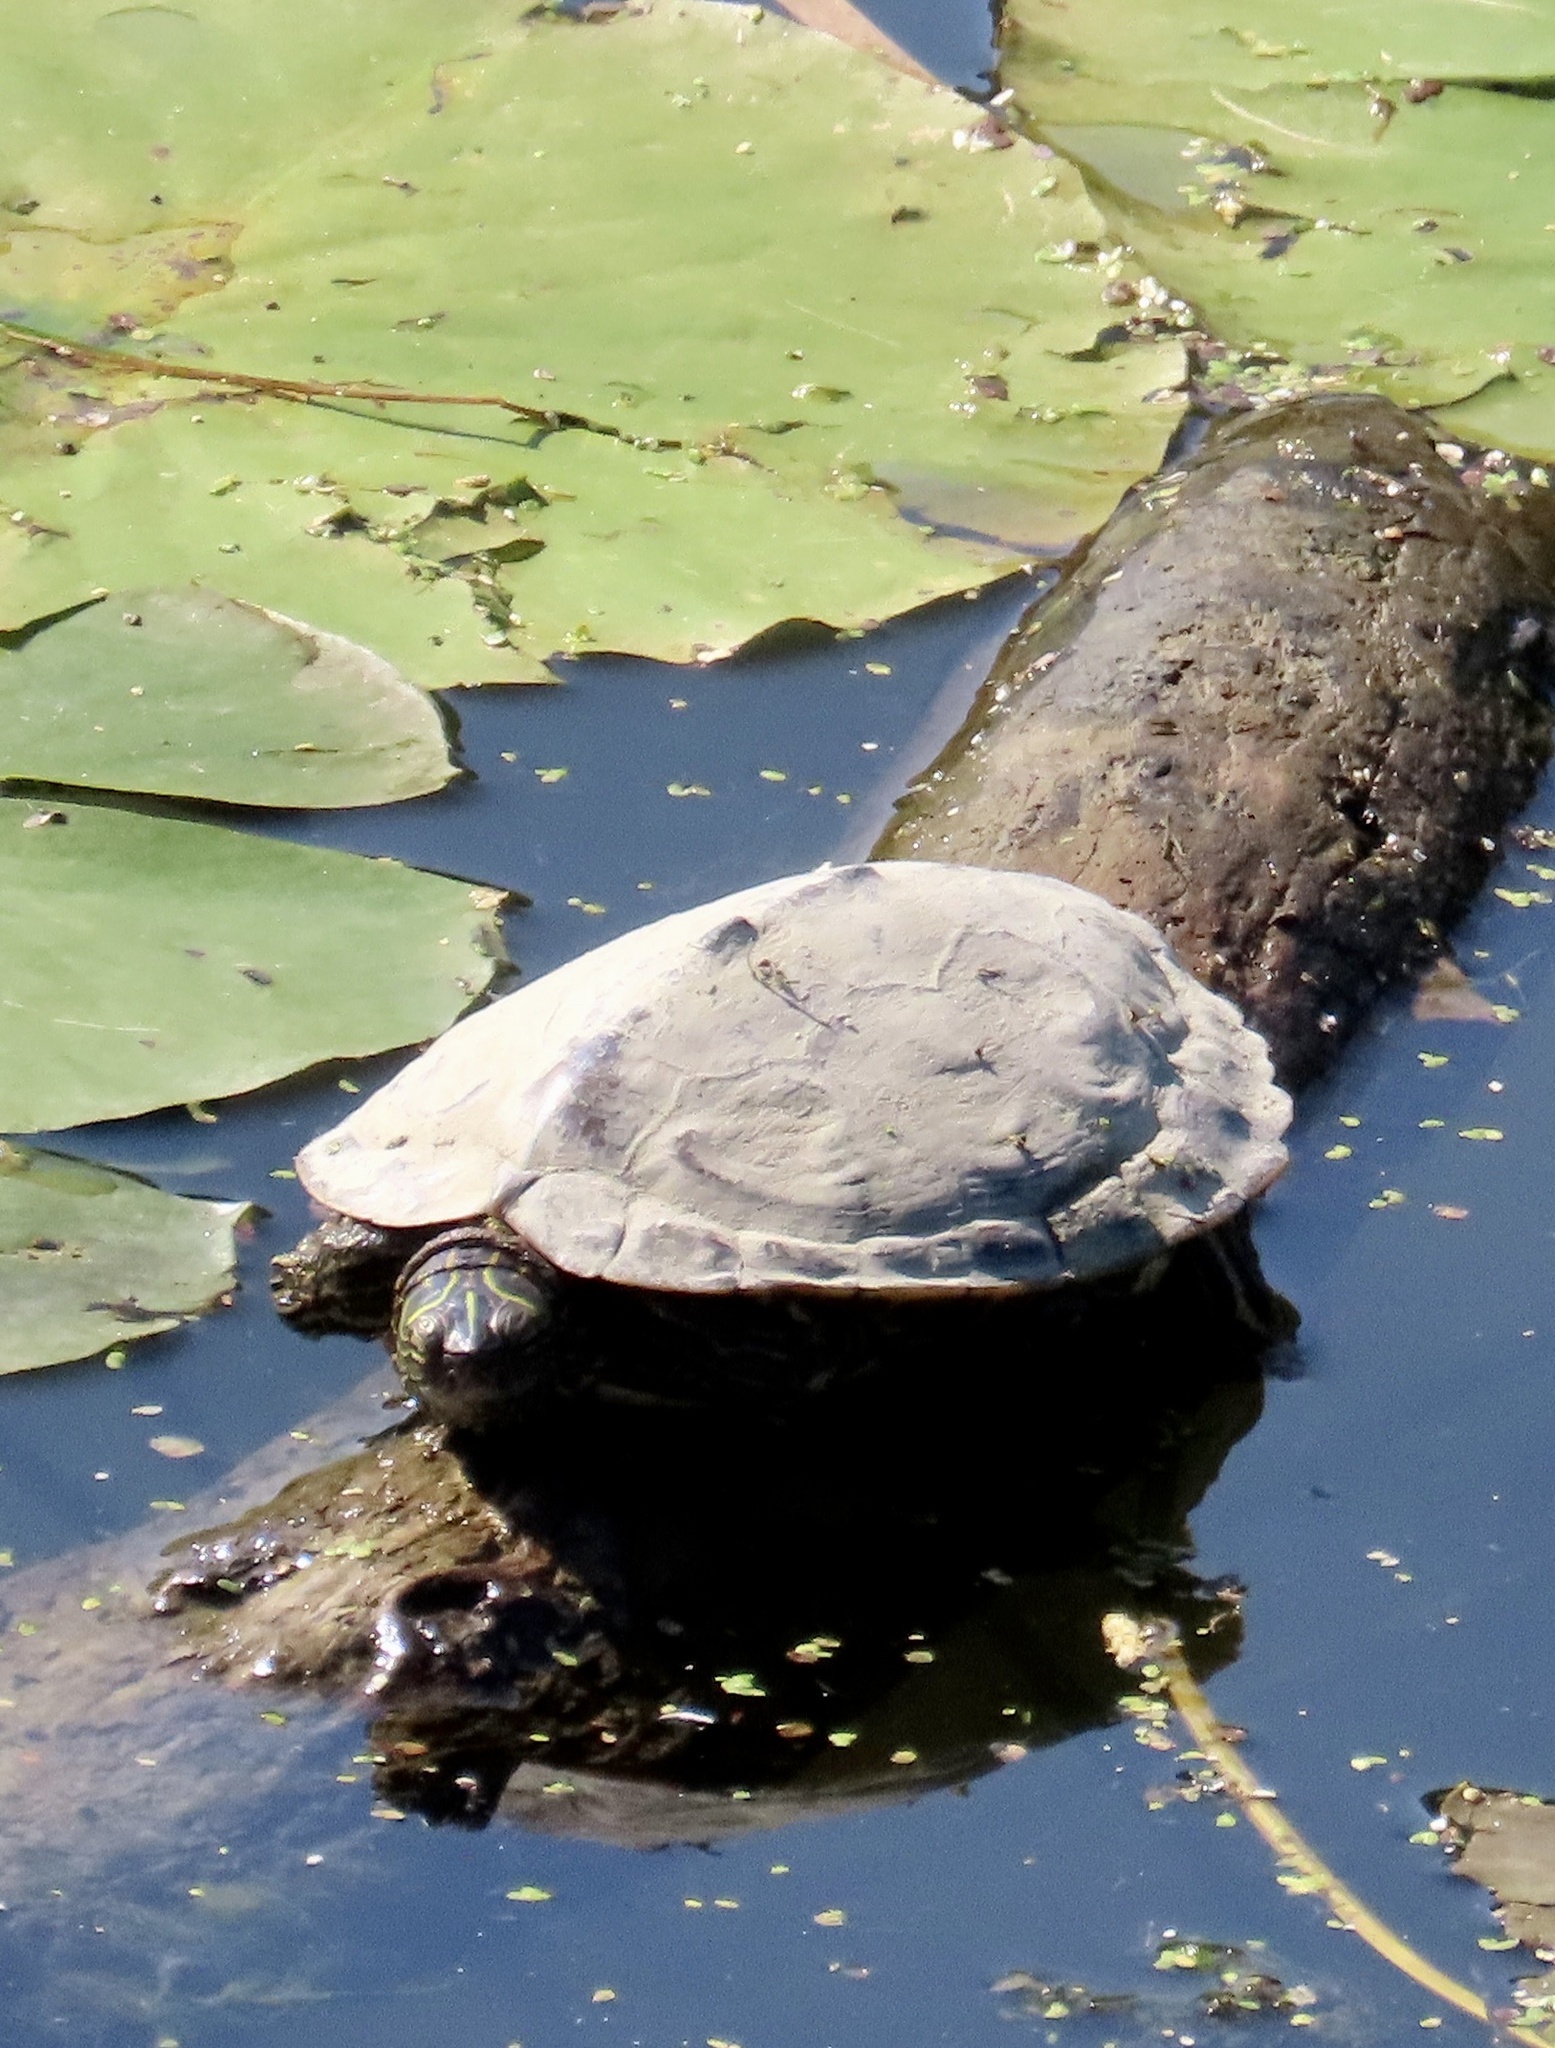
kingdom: Animalia
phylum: Chordata
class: Testudines
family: Emydidae
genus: Graptemys
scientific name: Graptemys geographica
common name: Common map turtle
